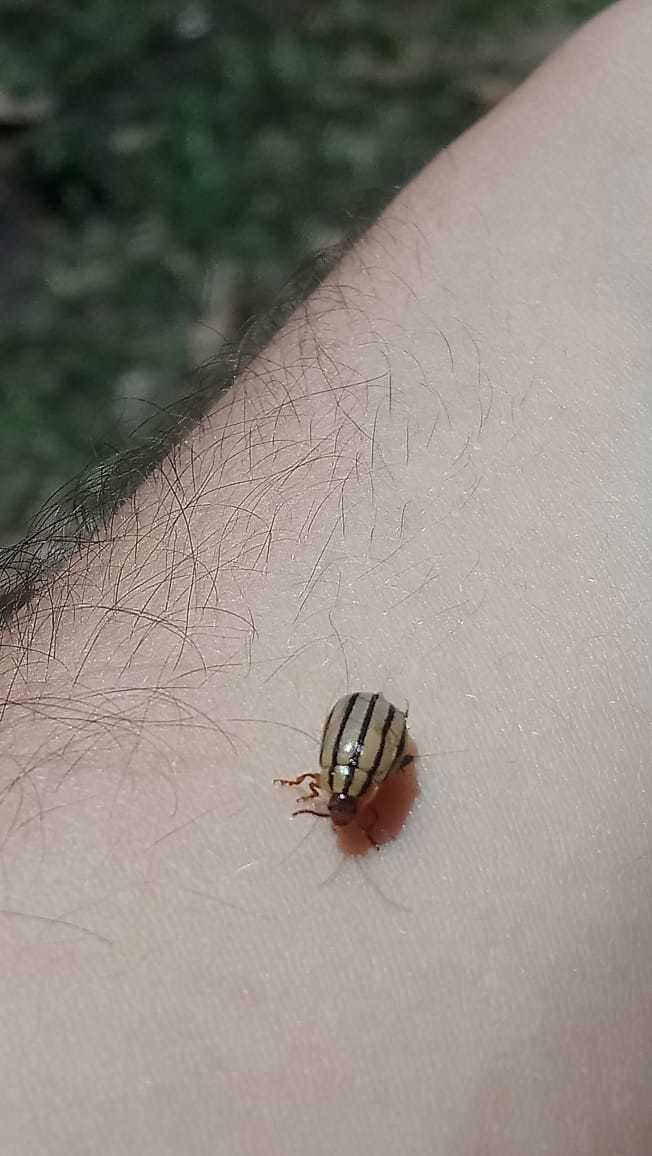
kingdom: Animalia
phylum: Arthropoda
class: Insecta
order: Coleoptera
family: Chrysomelidae
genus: Kuschelina
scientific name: Kuschelina
